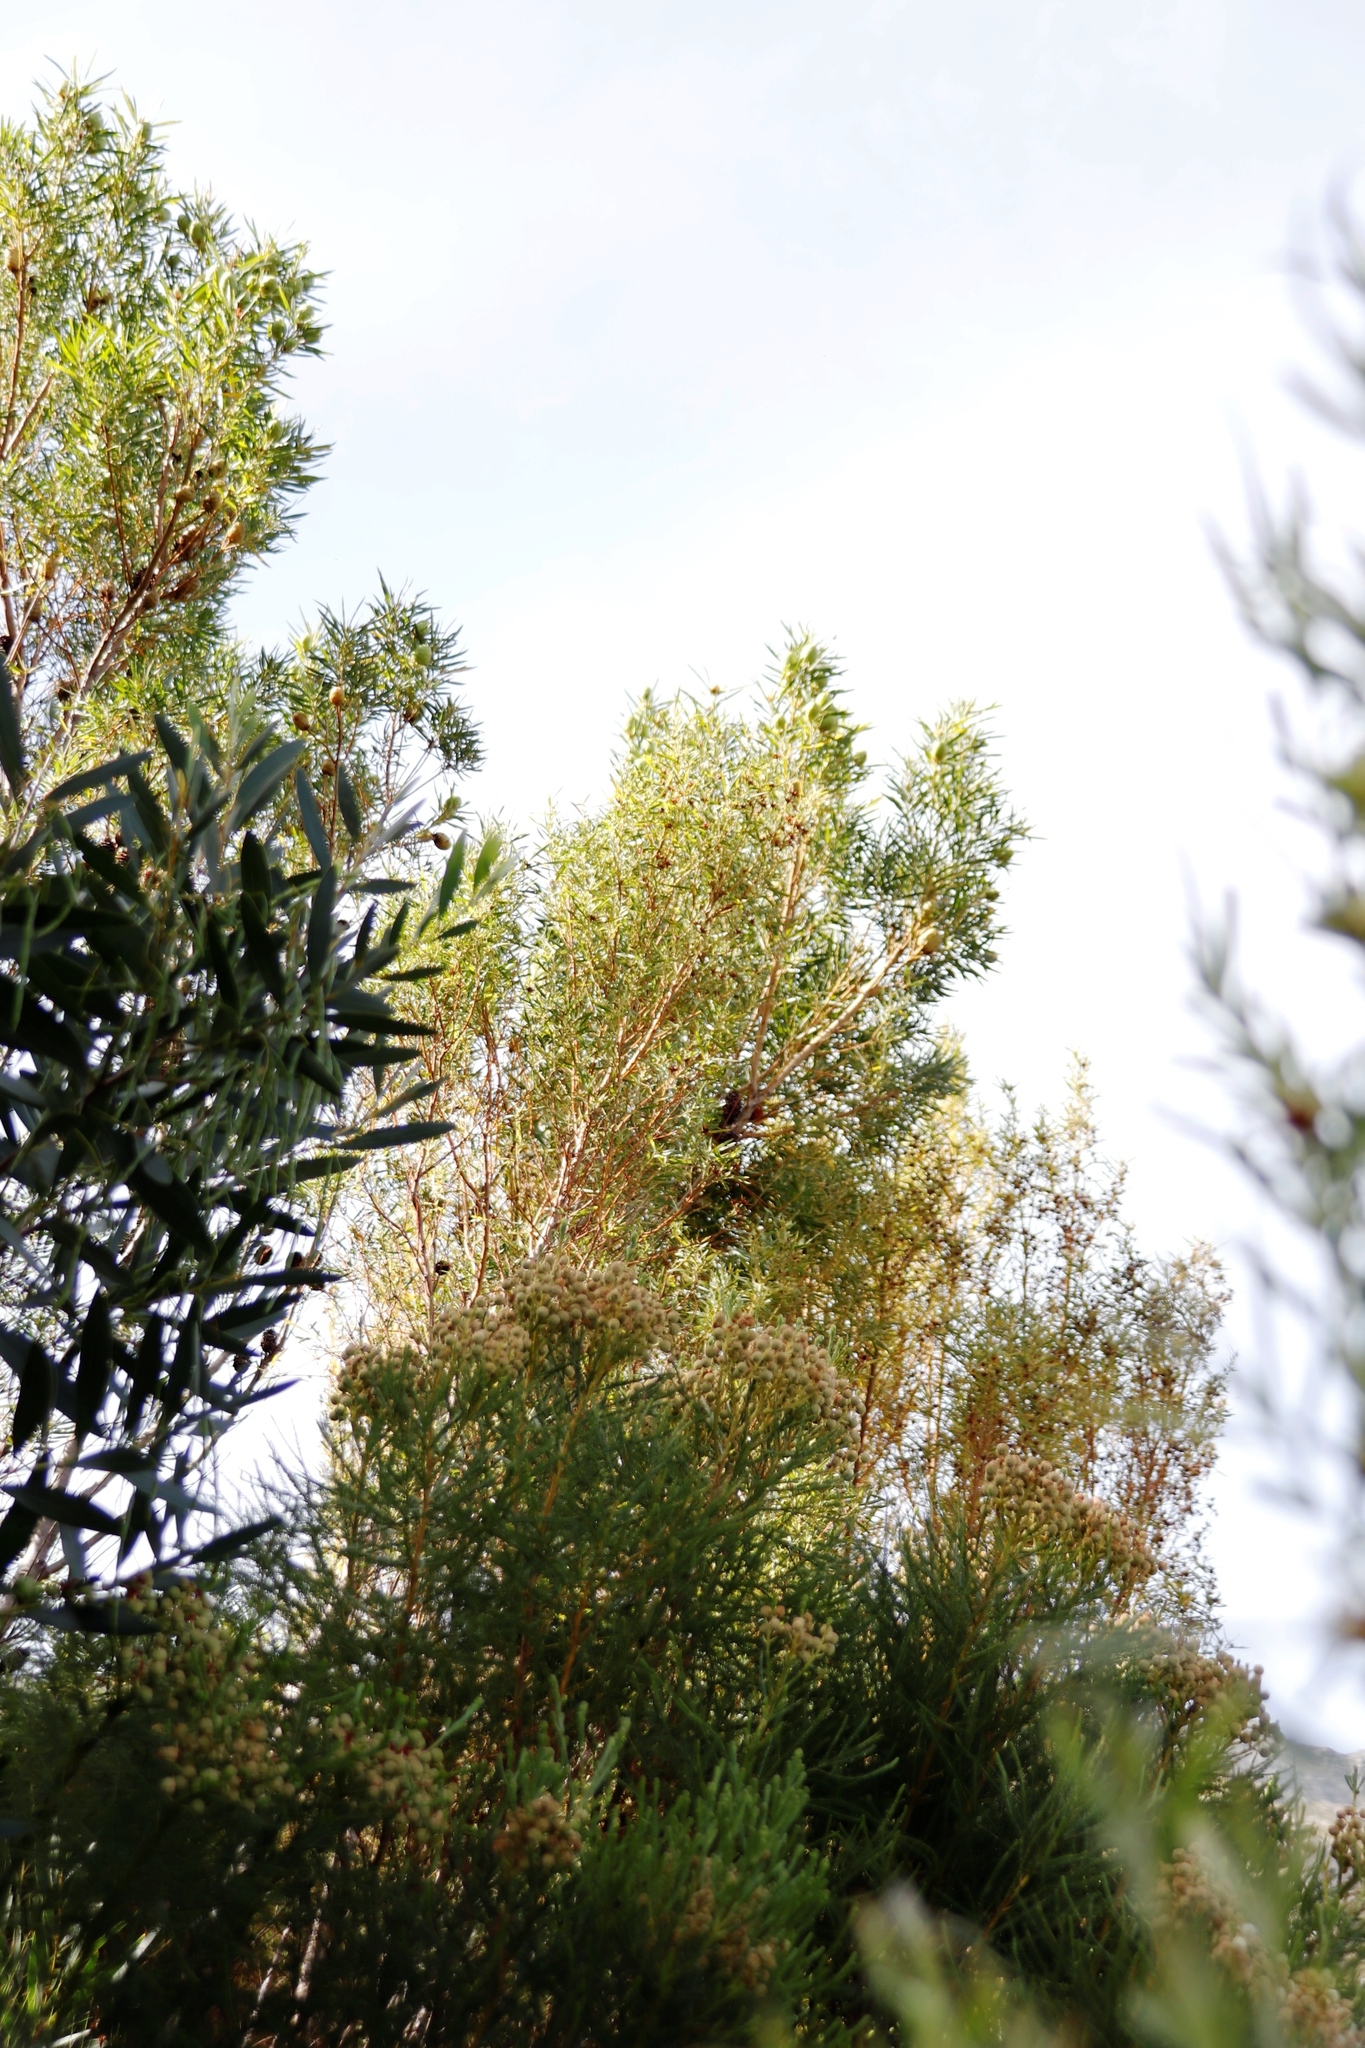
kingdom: Plantae
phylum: Tracheophyta
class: Magnoliopsida
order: Proteales
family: Proteaceae
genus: Leucadendron
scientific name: Leucadendron salicifolium
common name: Common stream conebush
